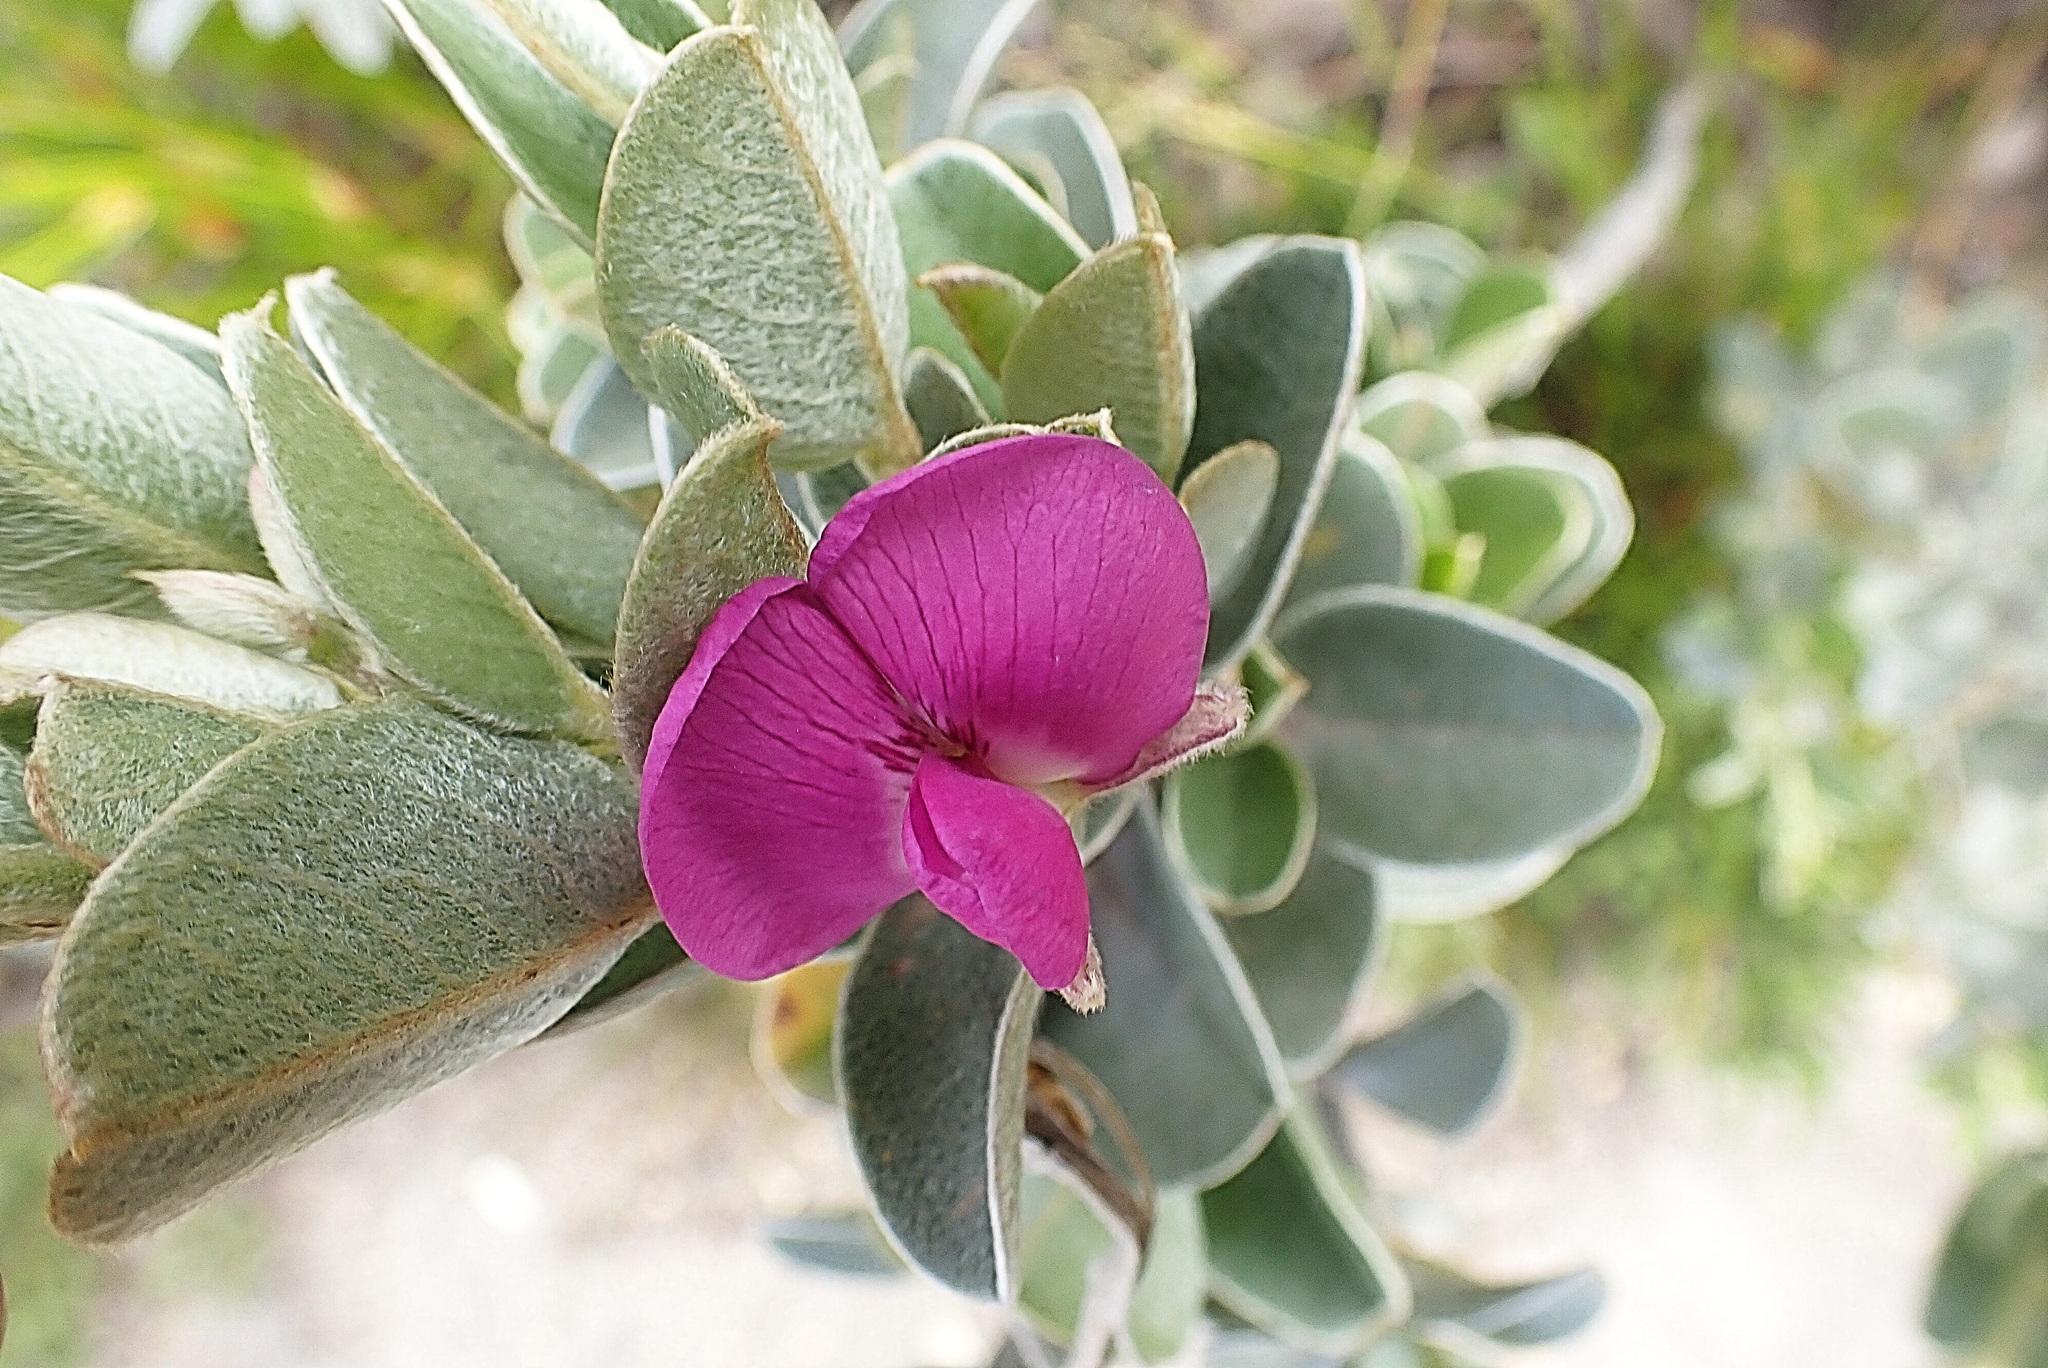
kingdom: Plantae
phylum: Tracheophyta
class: Magnoliopsida
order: Fabales
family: Fabaceae
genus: Podalyria
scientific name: Podalyria hirsuta
